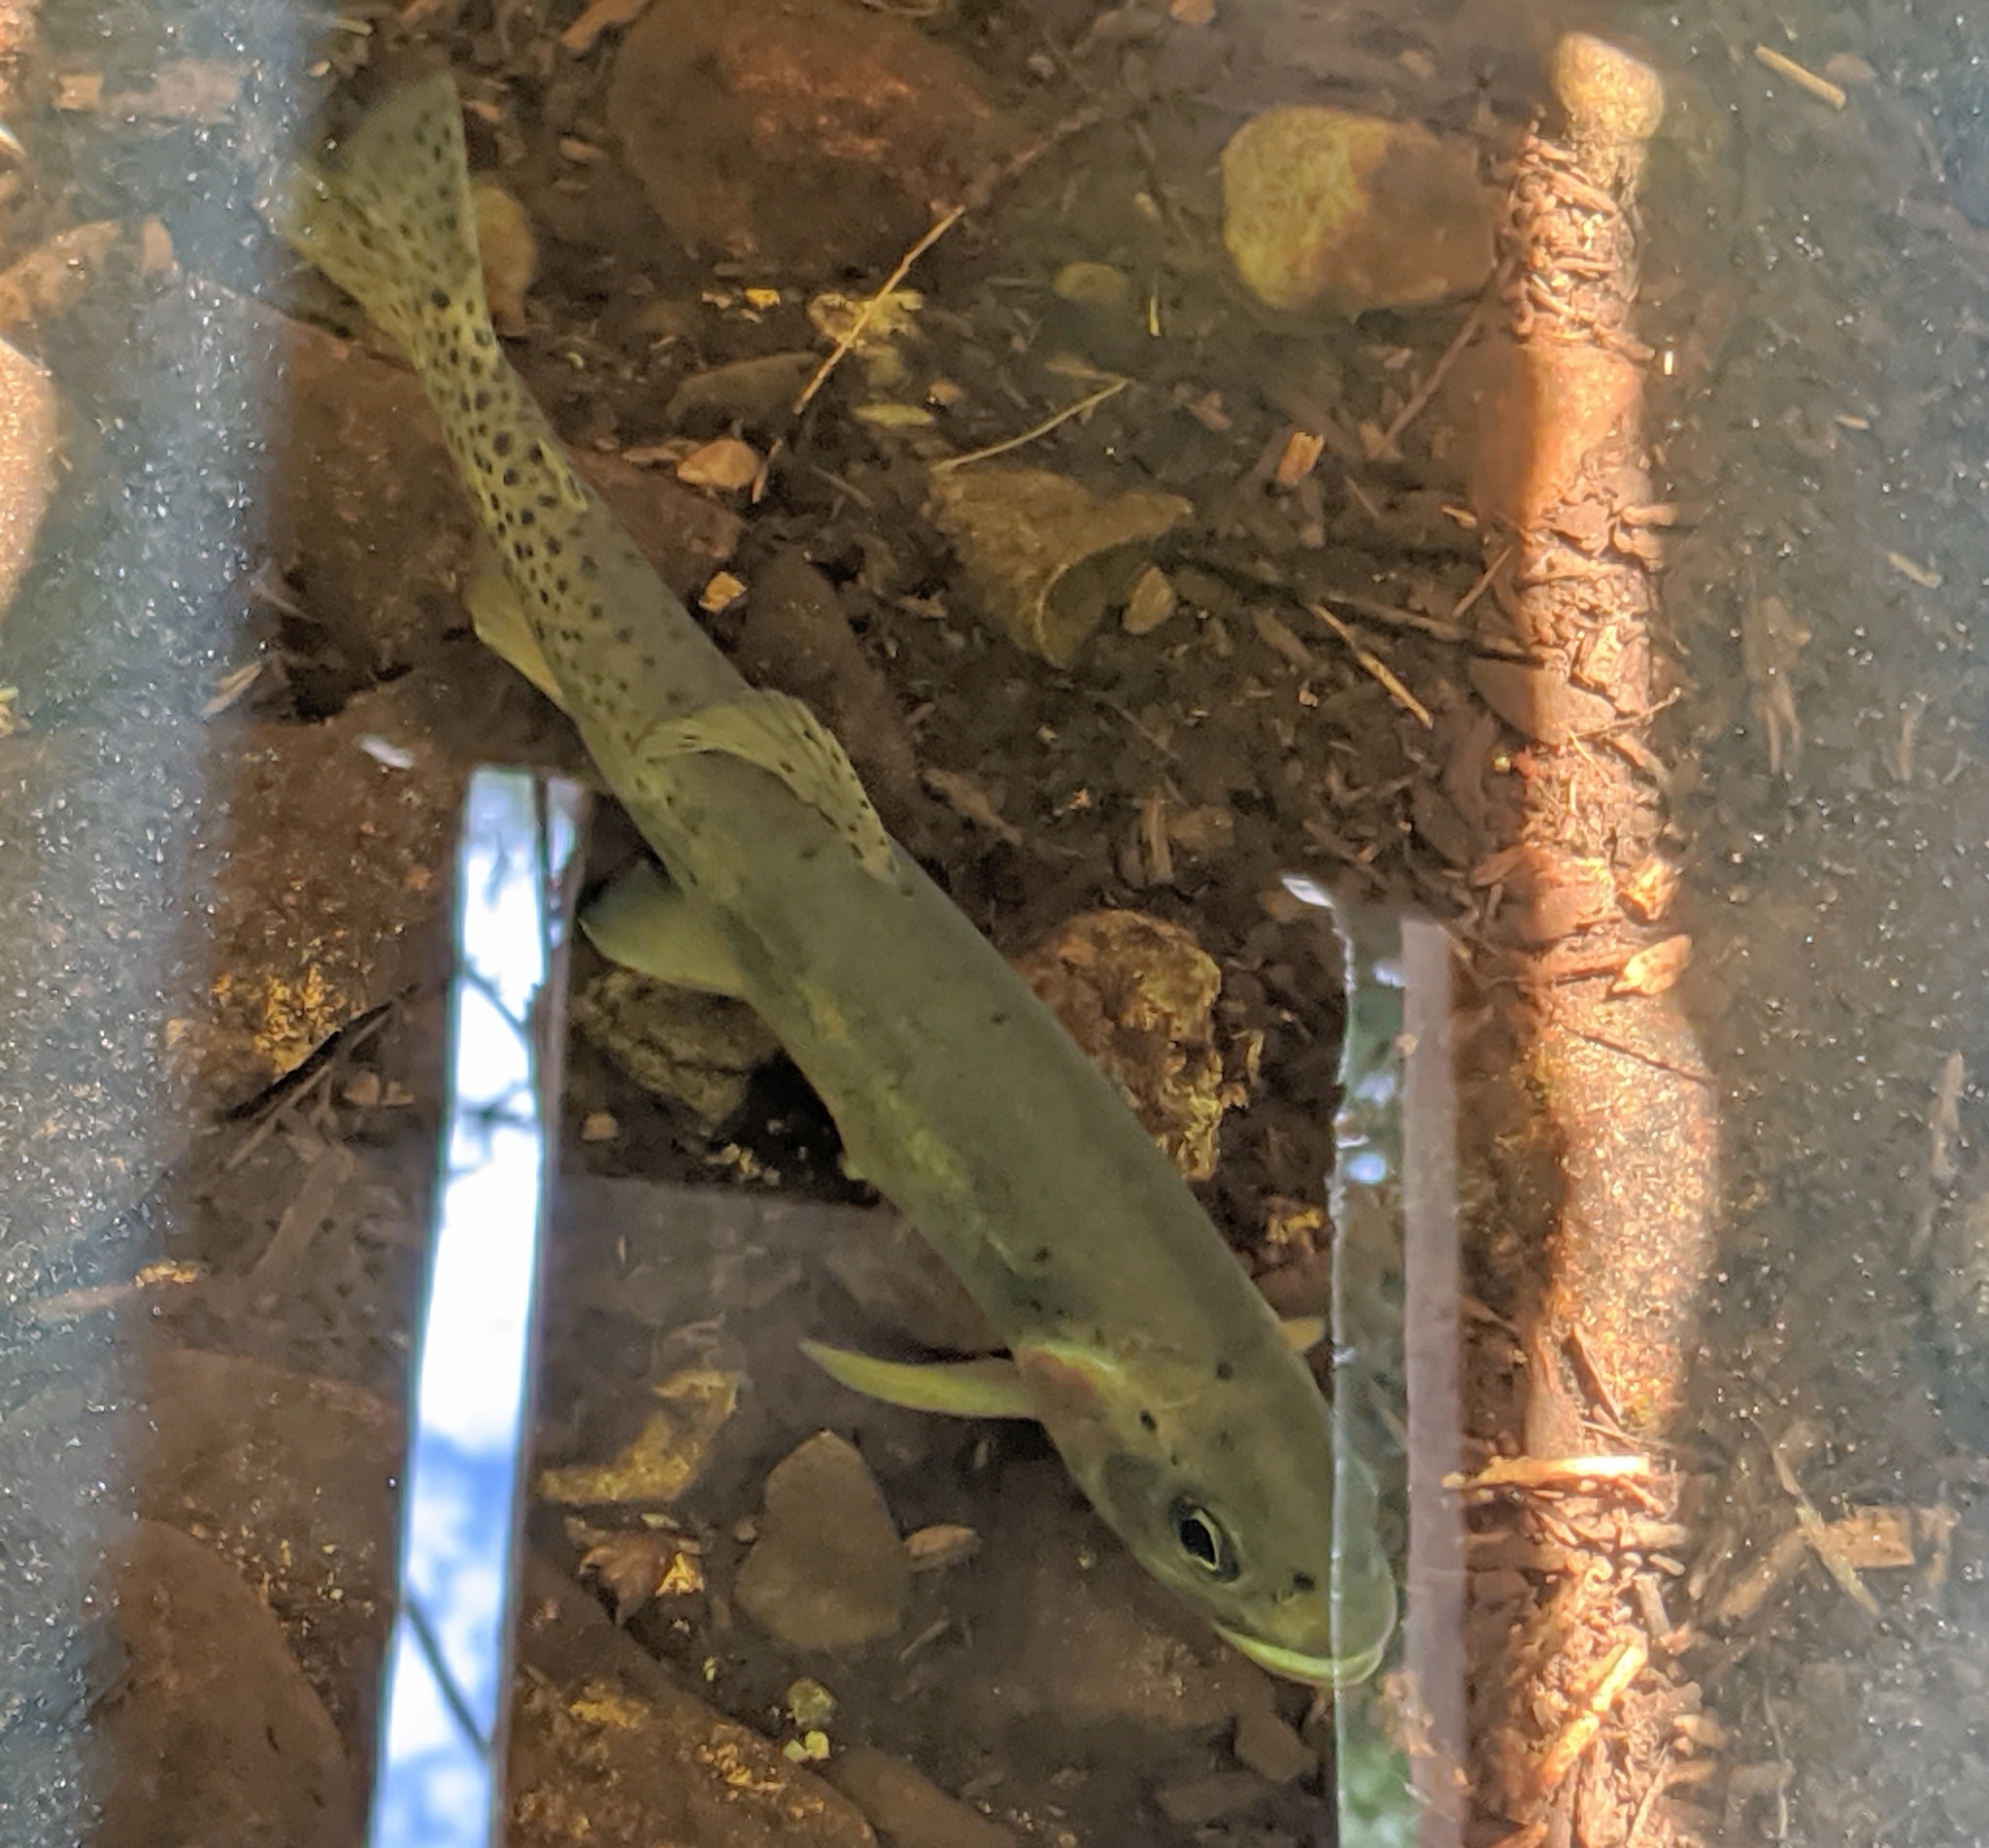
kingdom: Animalia
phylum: Chordata
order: Salmoniformes
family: Salmonidae
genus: Oncorhynchus
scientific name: Oncorhynchus
